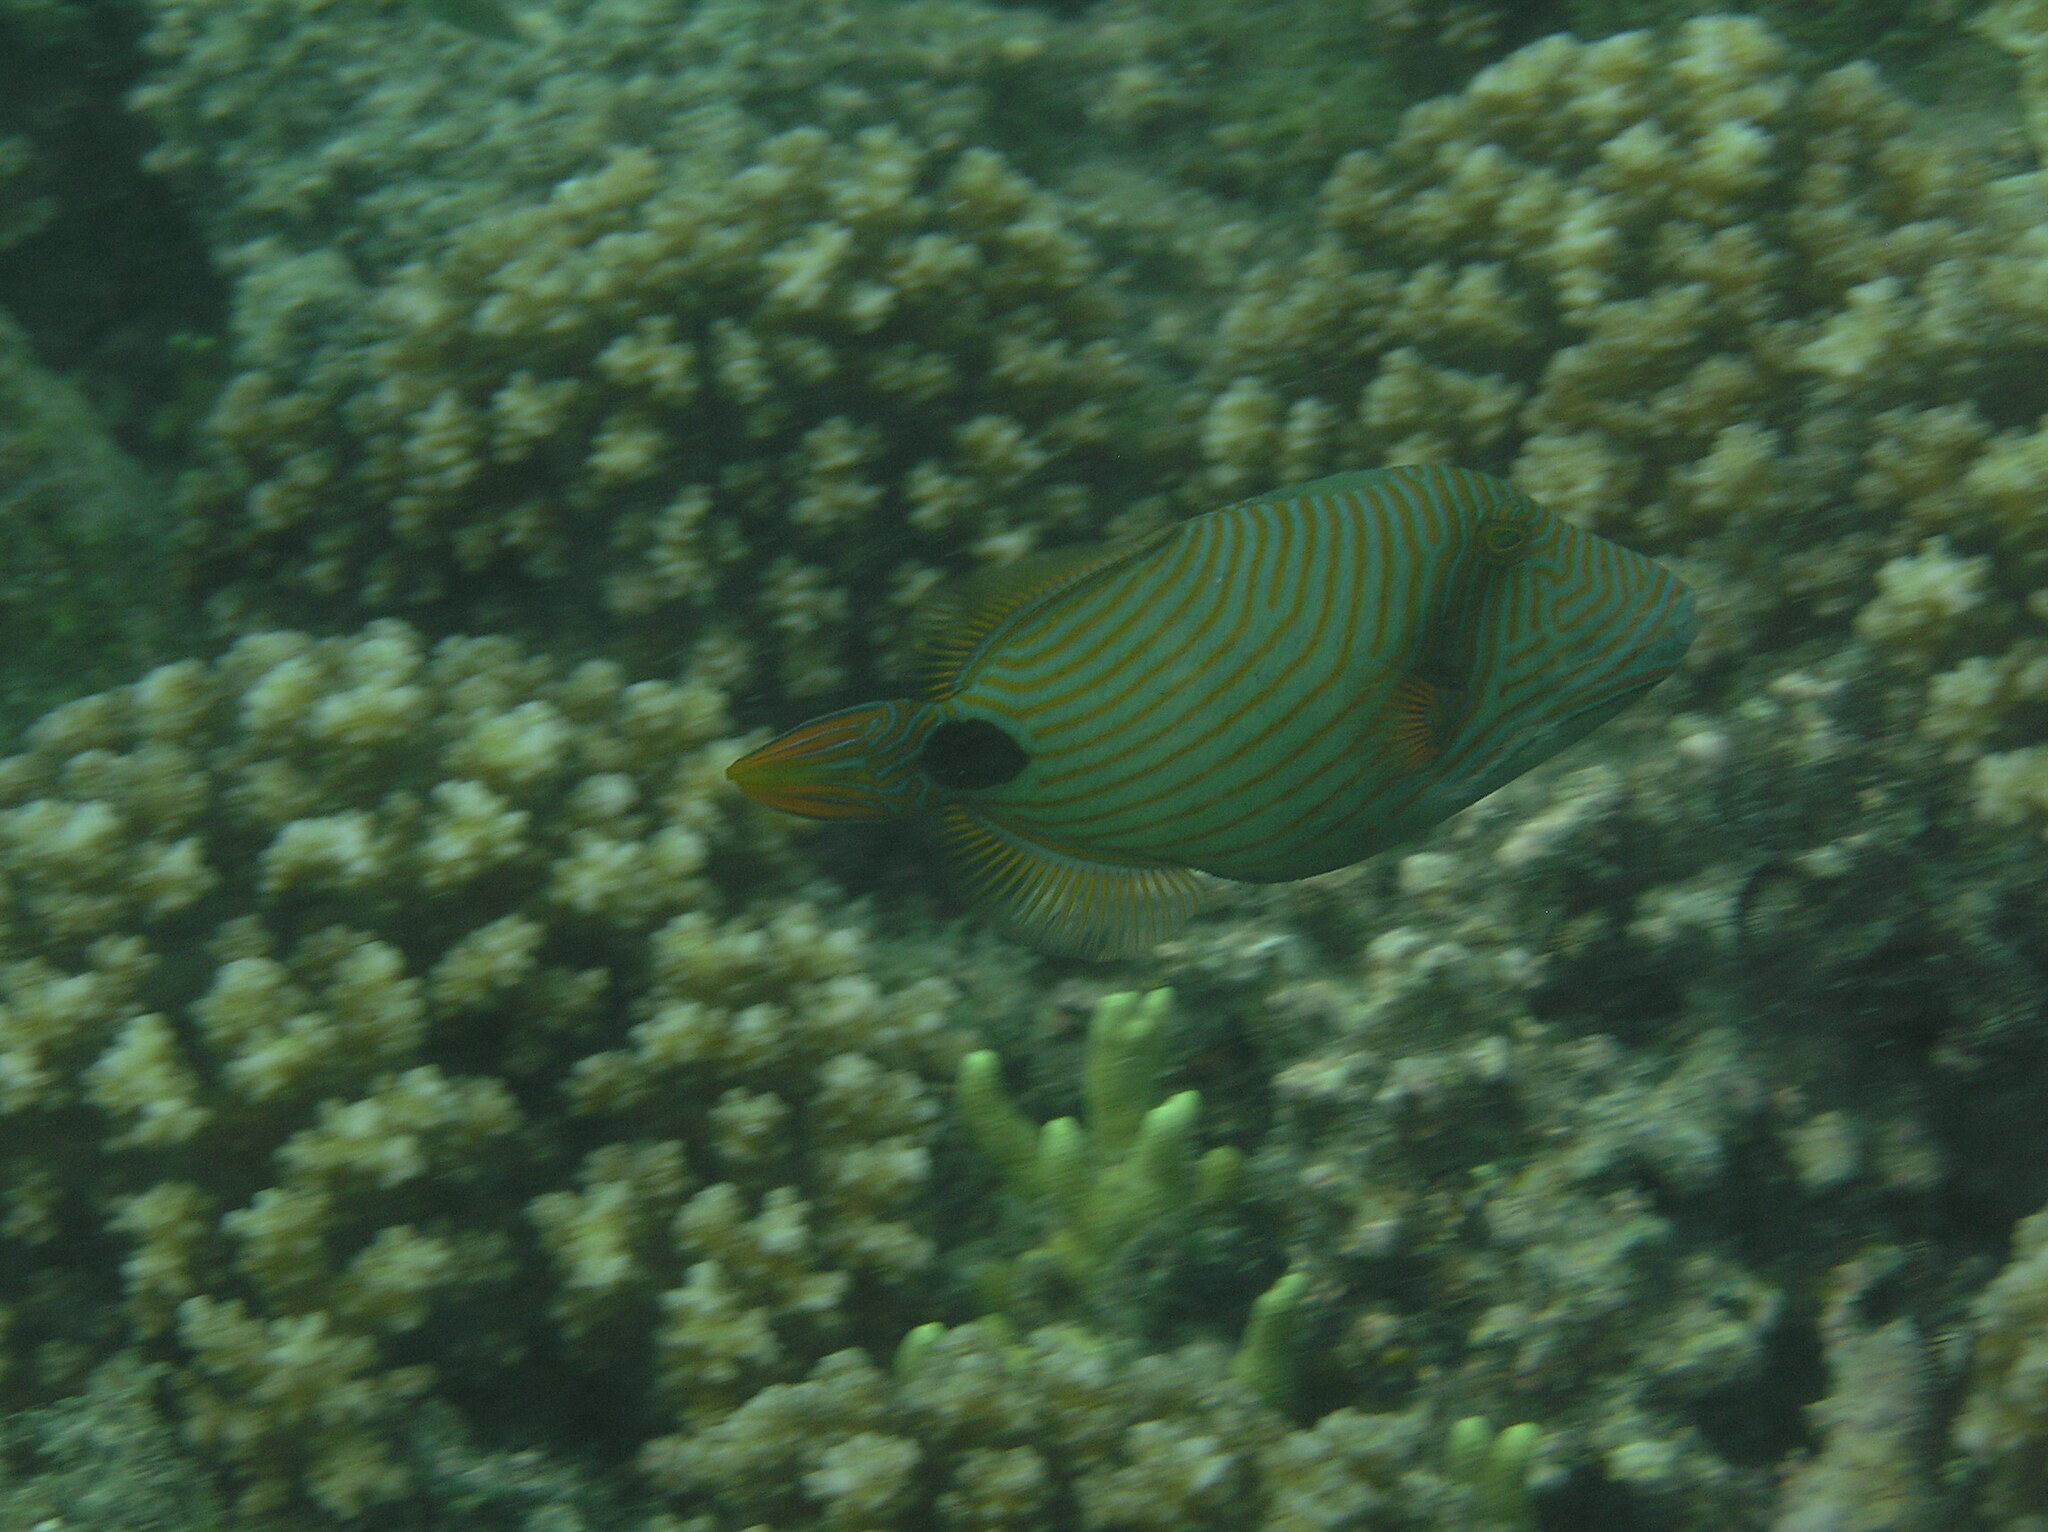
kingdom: Animalia
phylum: Chordata
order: Tetraodontiformes
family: Balistidae
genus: Balistapus
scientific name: Balistapus undulatus
